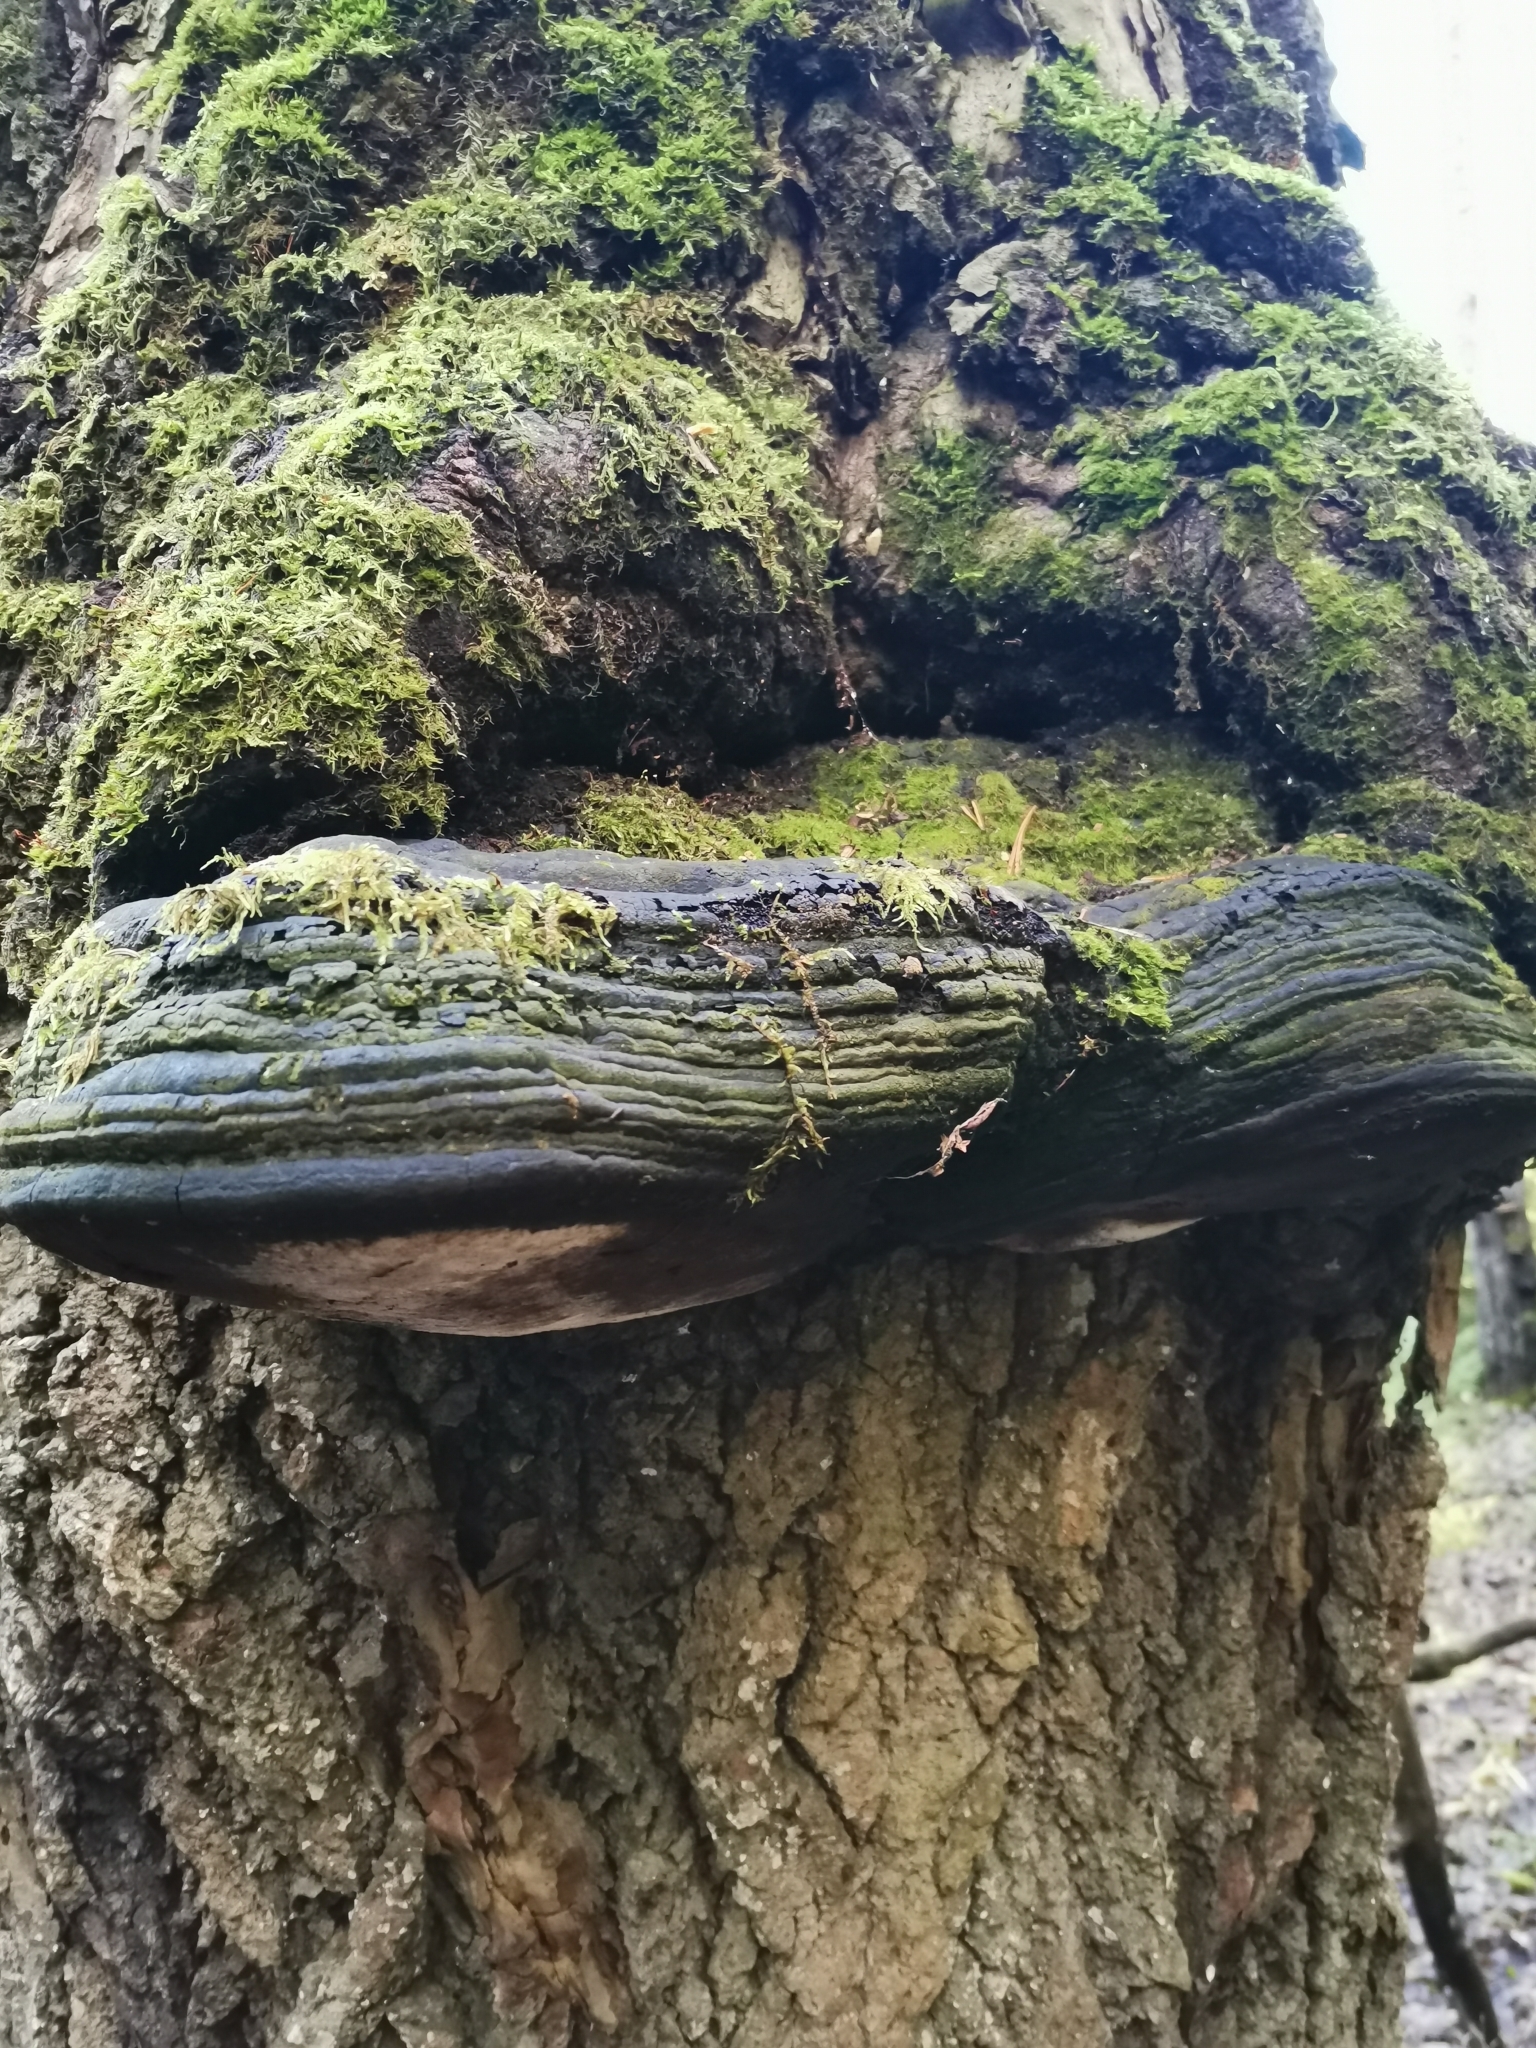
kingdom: Fungi
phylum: Basidiomycota
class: Agaricomycetes
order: Hymenochaetales
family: Hymenochaetaceae
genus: Phellinus
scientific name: Phellinus tremulae
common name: Aspen bracket
